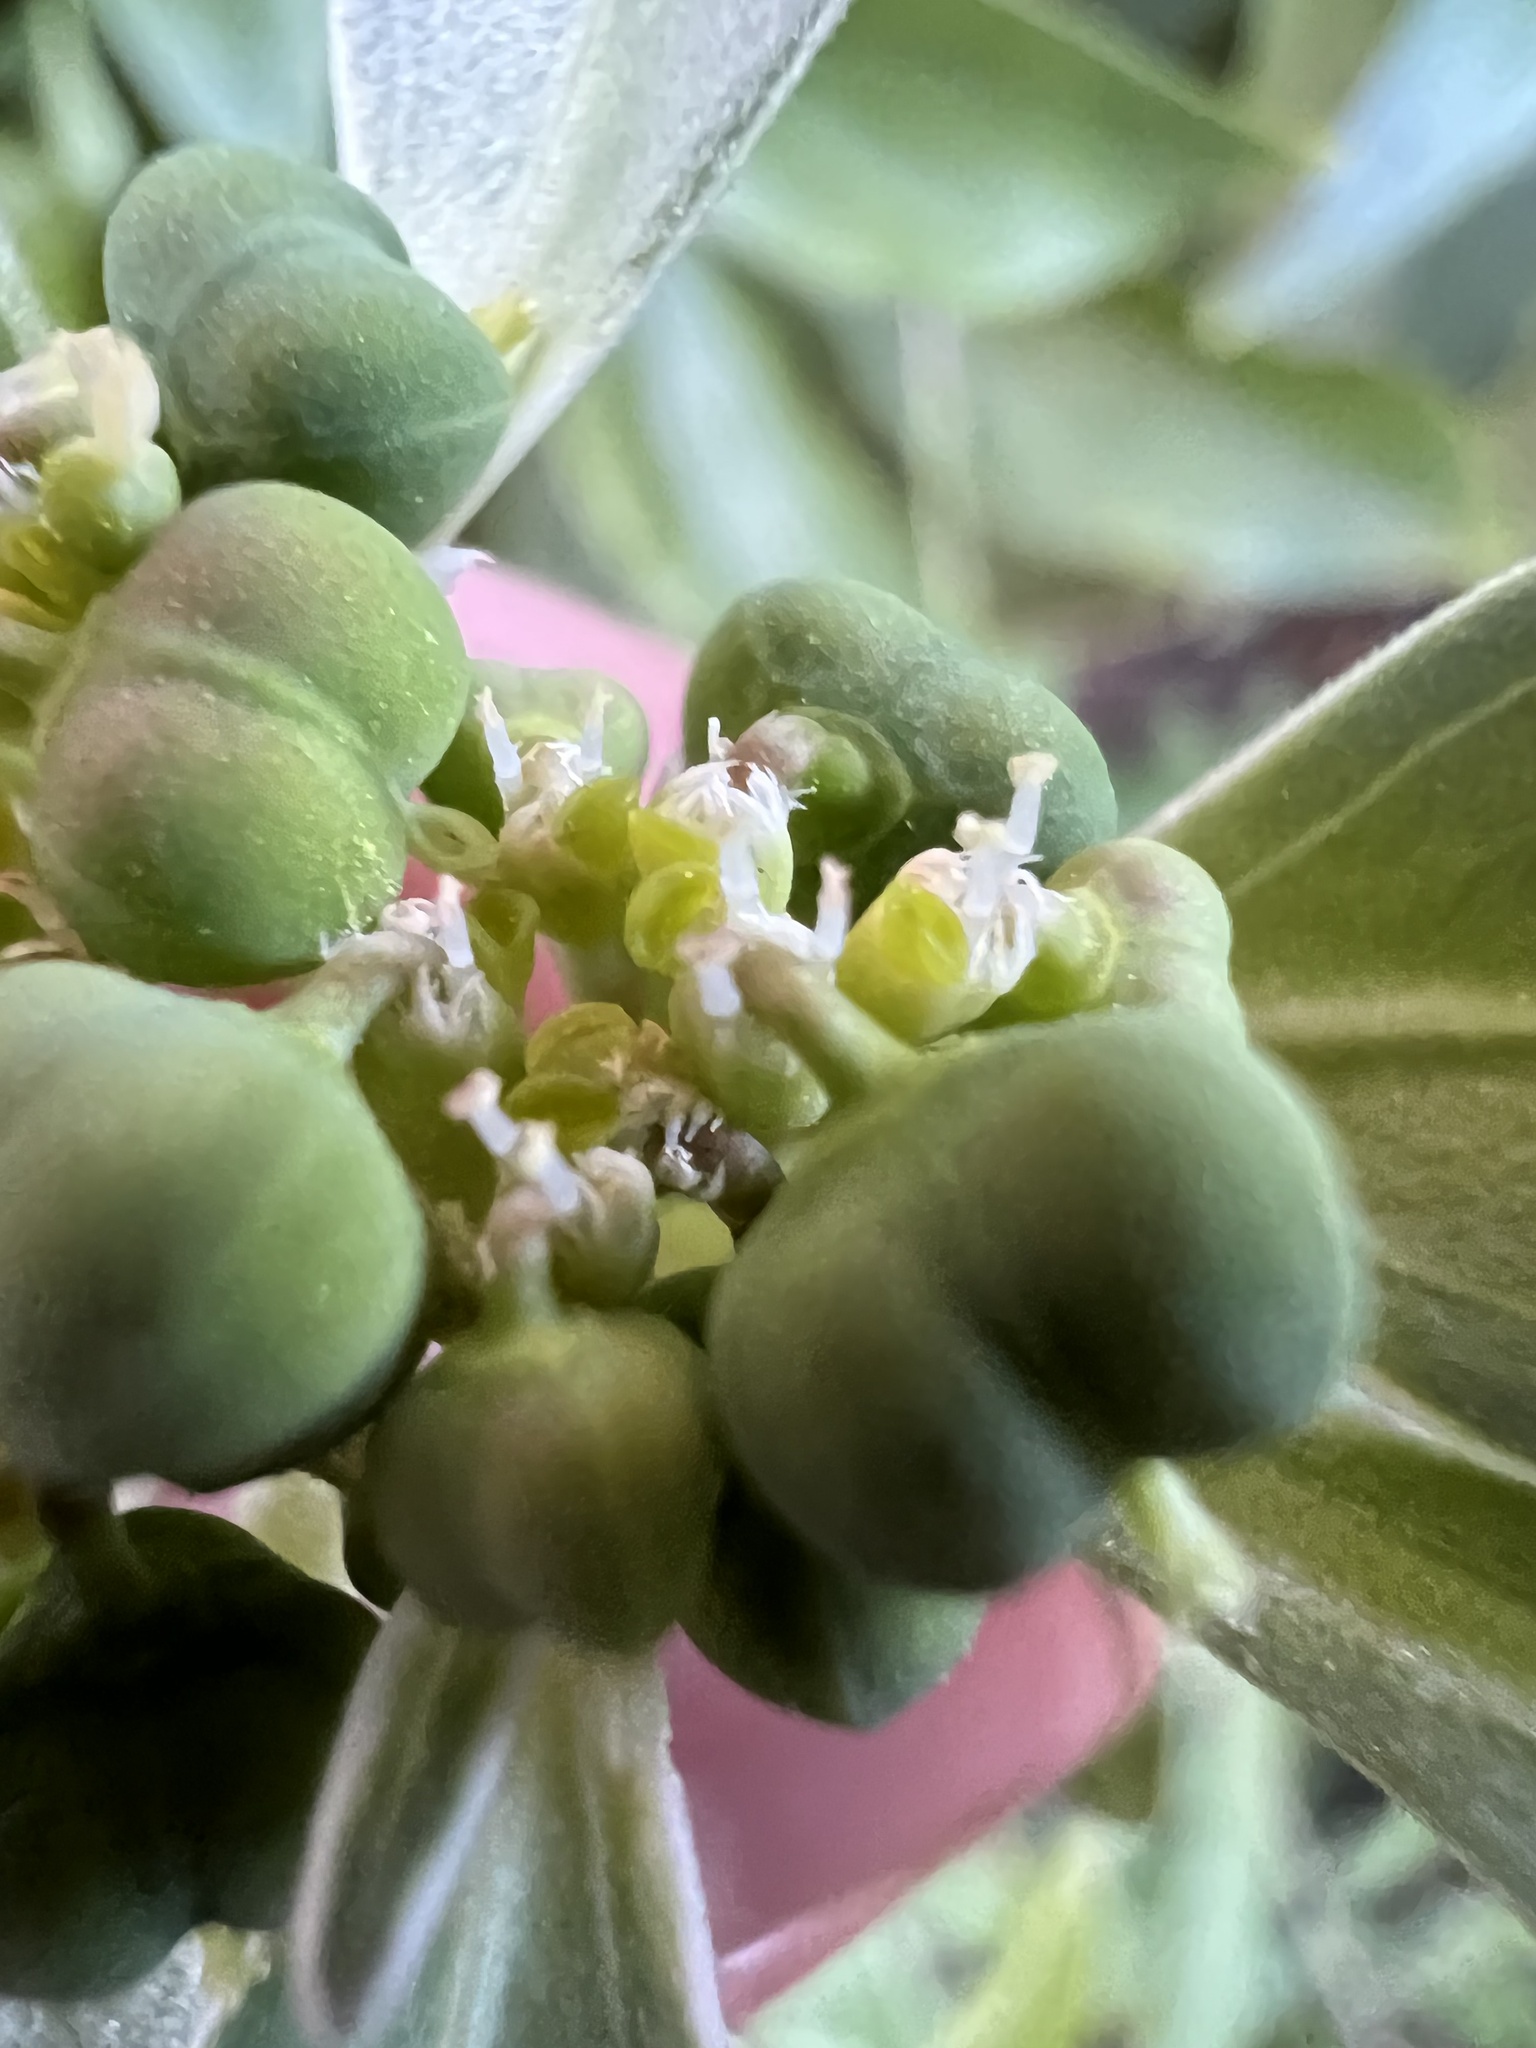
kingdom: Plantae
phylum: Tracheophyta
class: Magnoliopsida
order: Malpighiales
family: Euphorbiaceae
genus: Euphorbia
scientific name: Euphorbia dentata
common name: Dentate spurge
